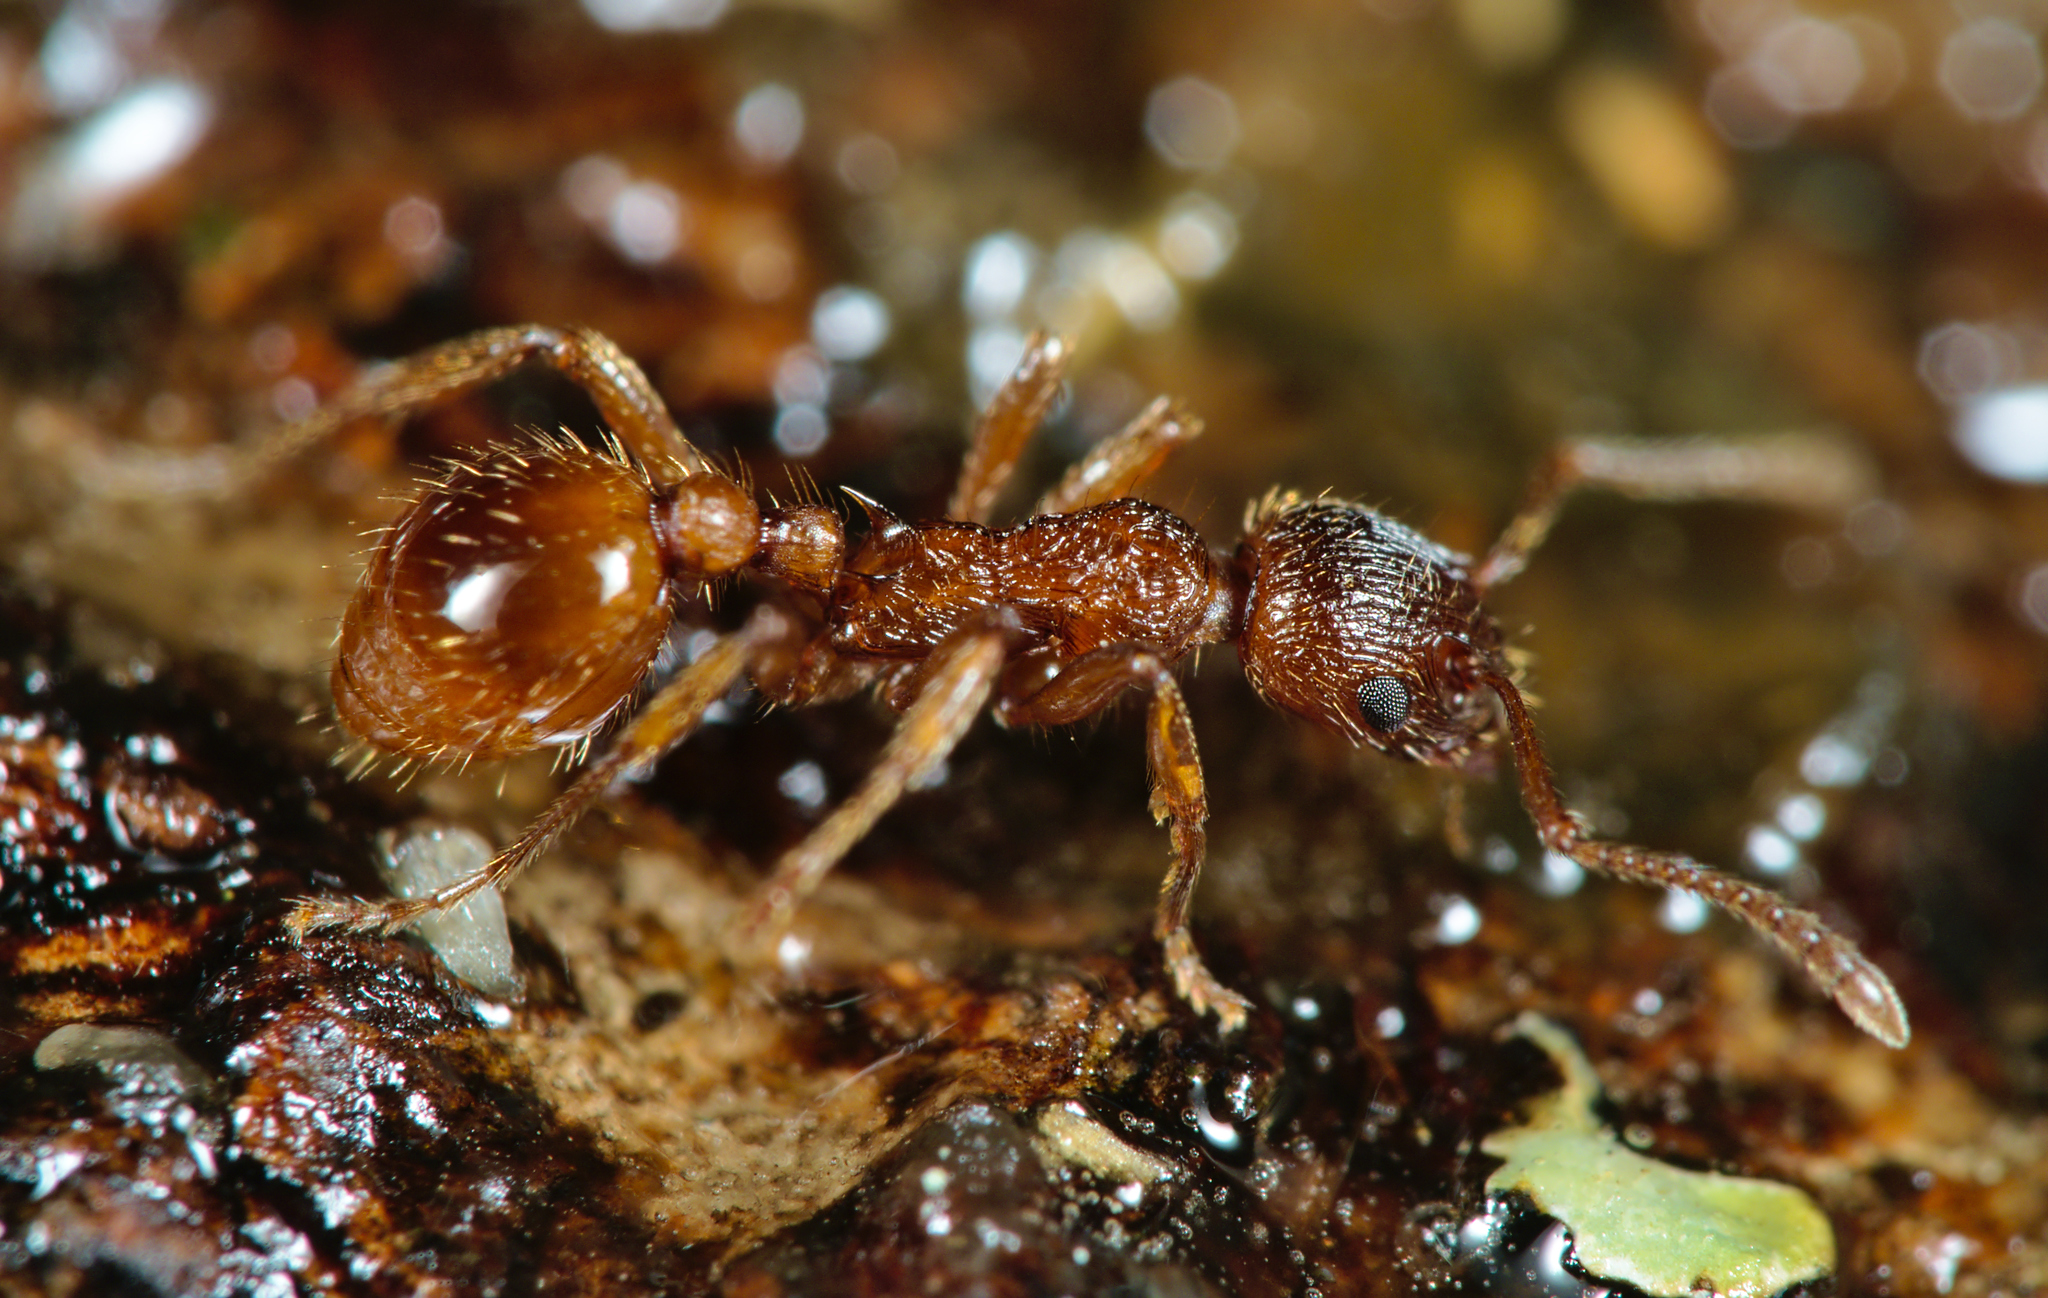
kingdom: Animalia
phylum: Arthropoda
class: Insecta
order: Hymenoptera
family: Formicidae
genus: Myrmica
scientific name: Myrmica rubra
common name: European fire ant
